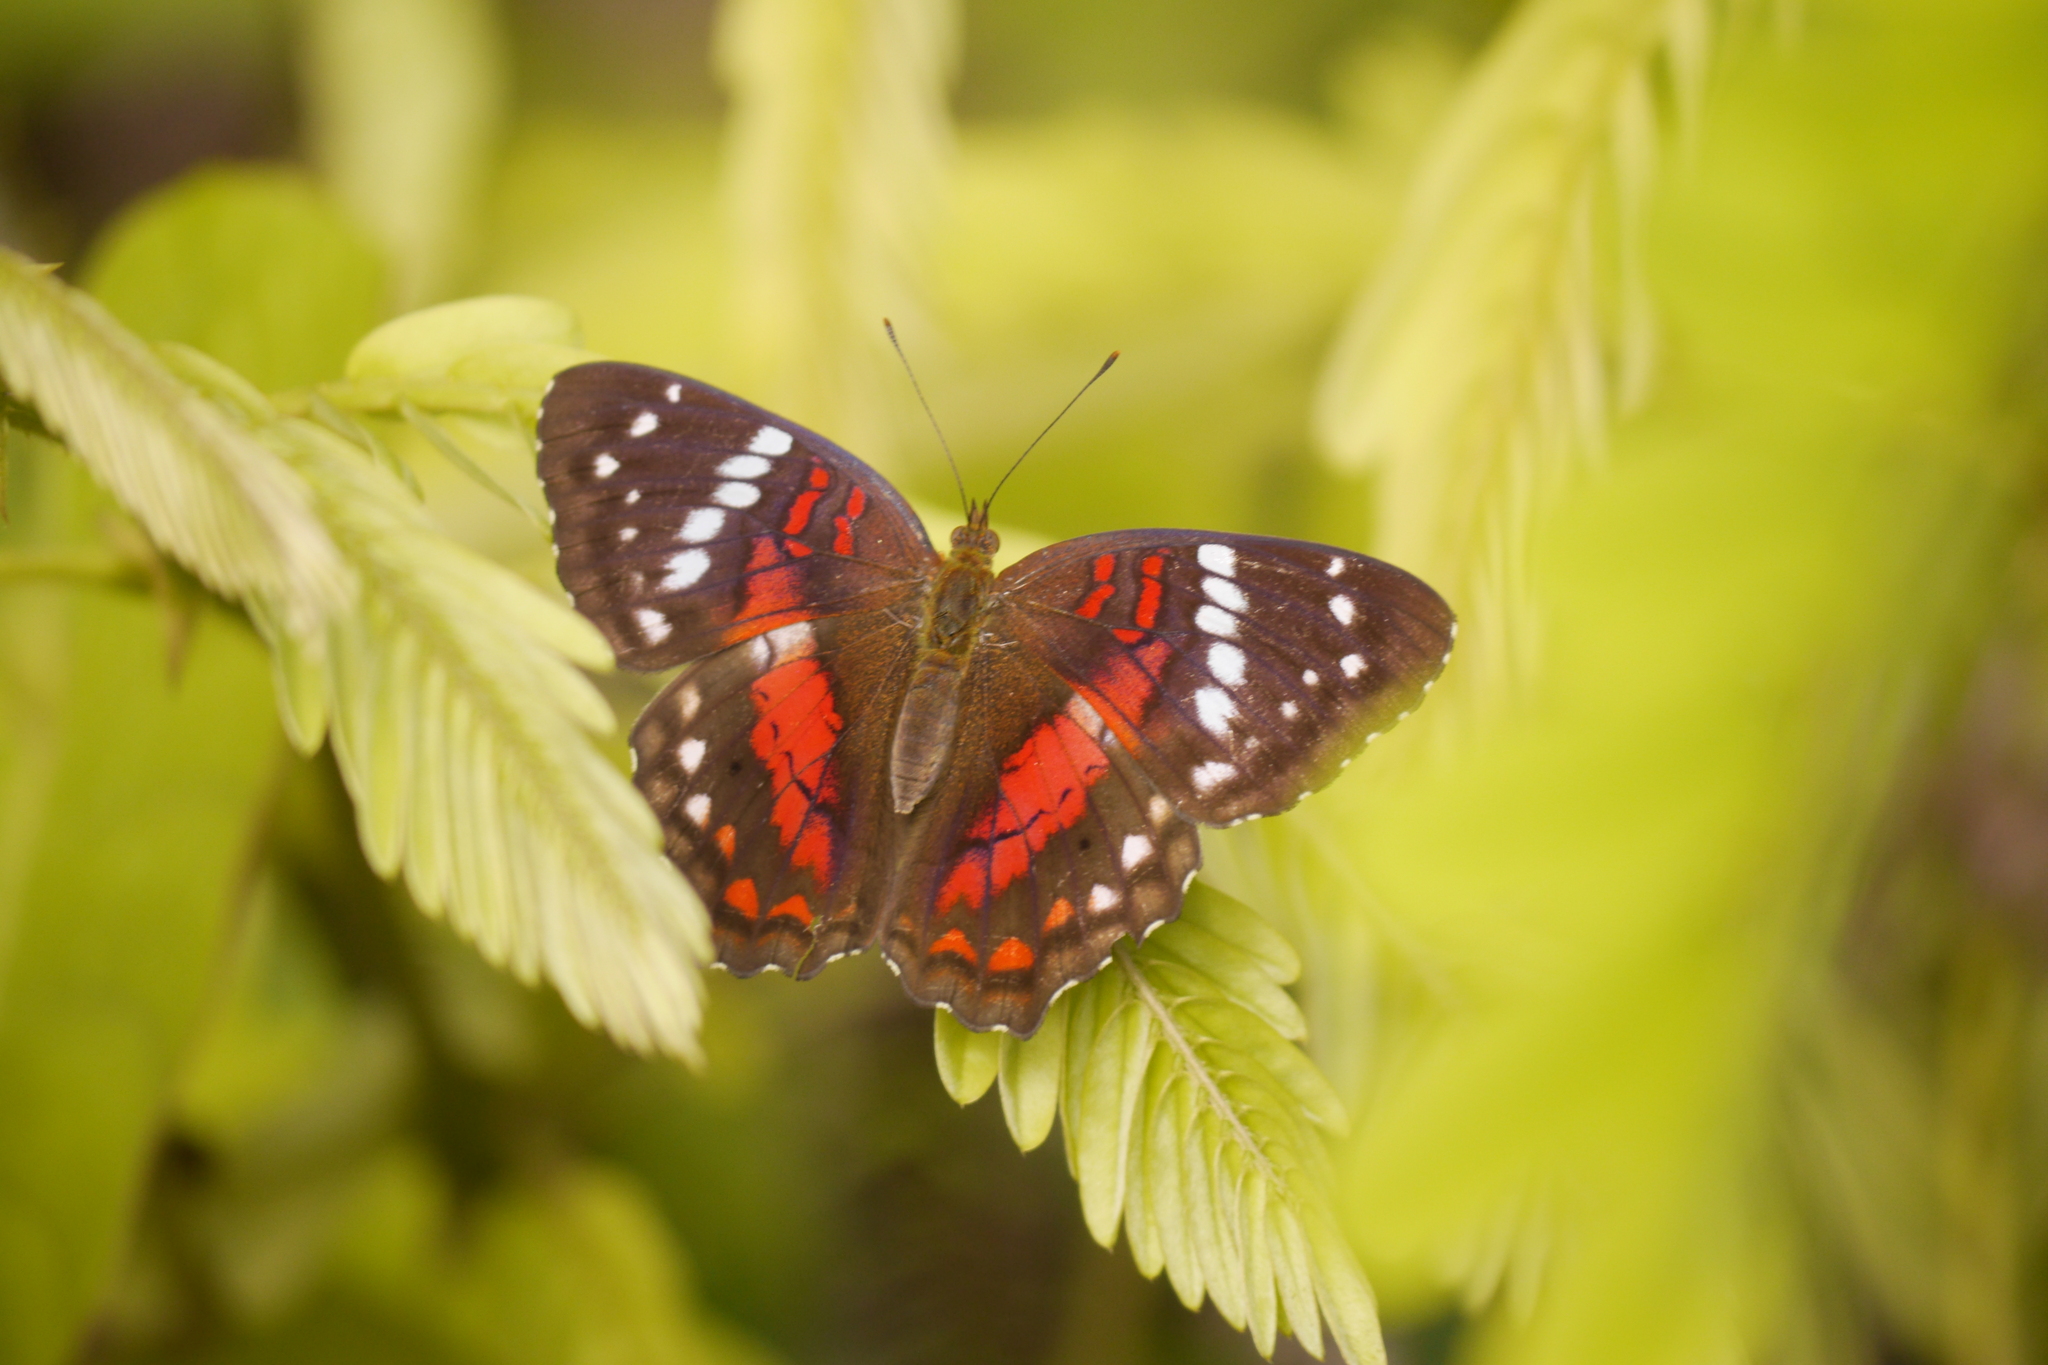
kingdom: Animalia
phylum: Arthropoda
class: Insecta
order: Lepidoptera
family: Nymphalidae
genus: Anartia
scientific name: Anartia amathea
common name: Red peacock
